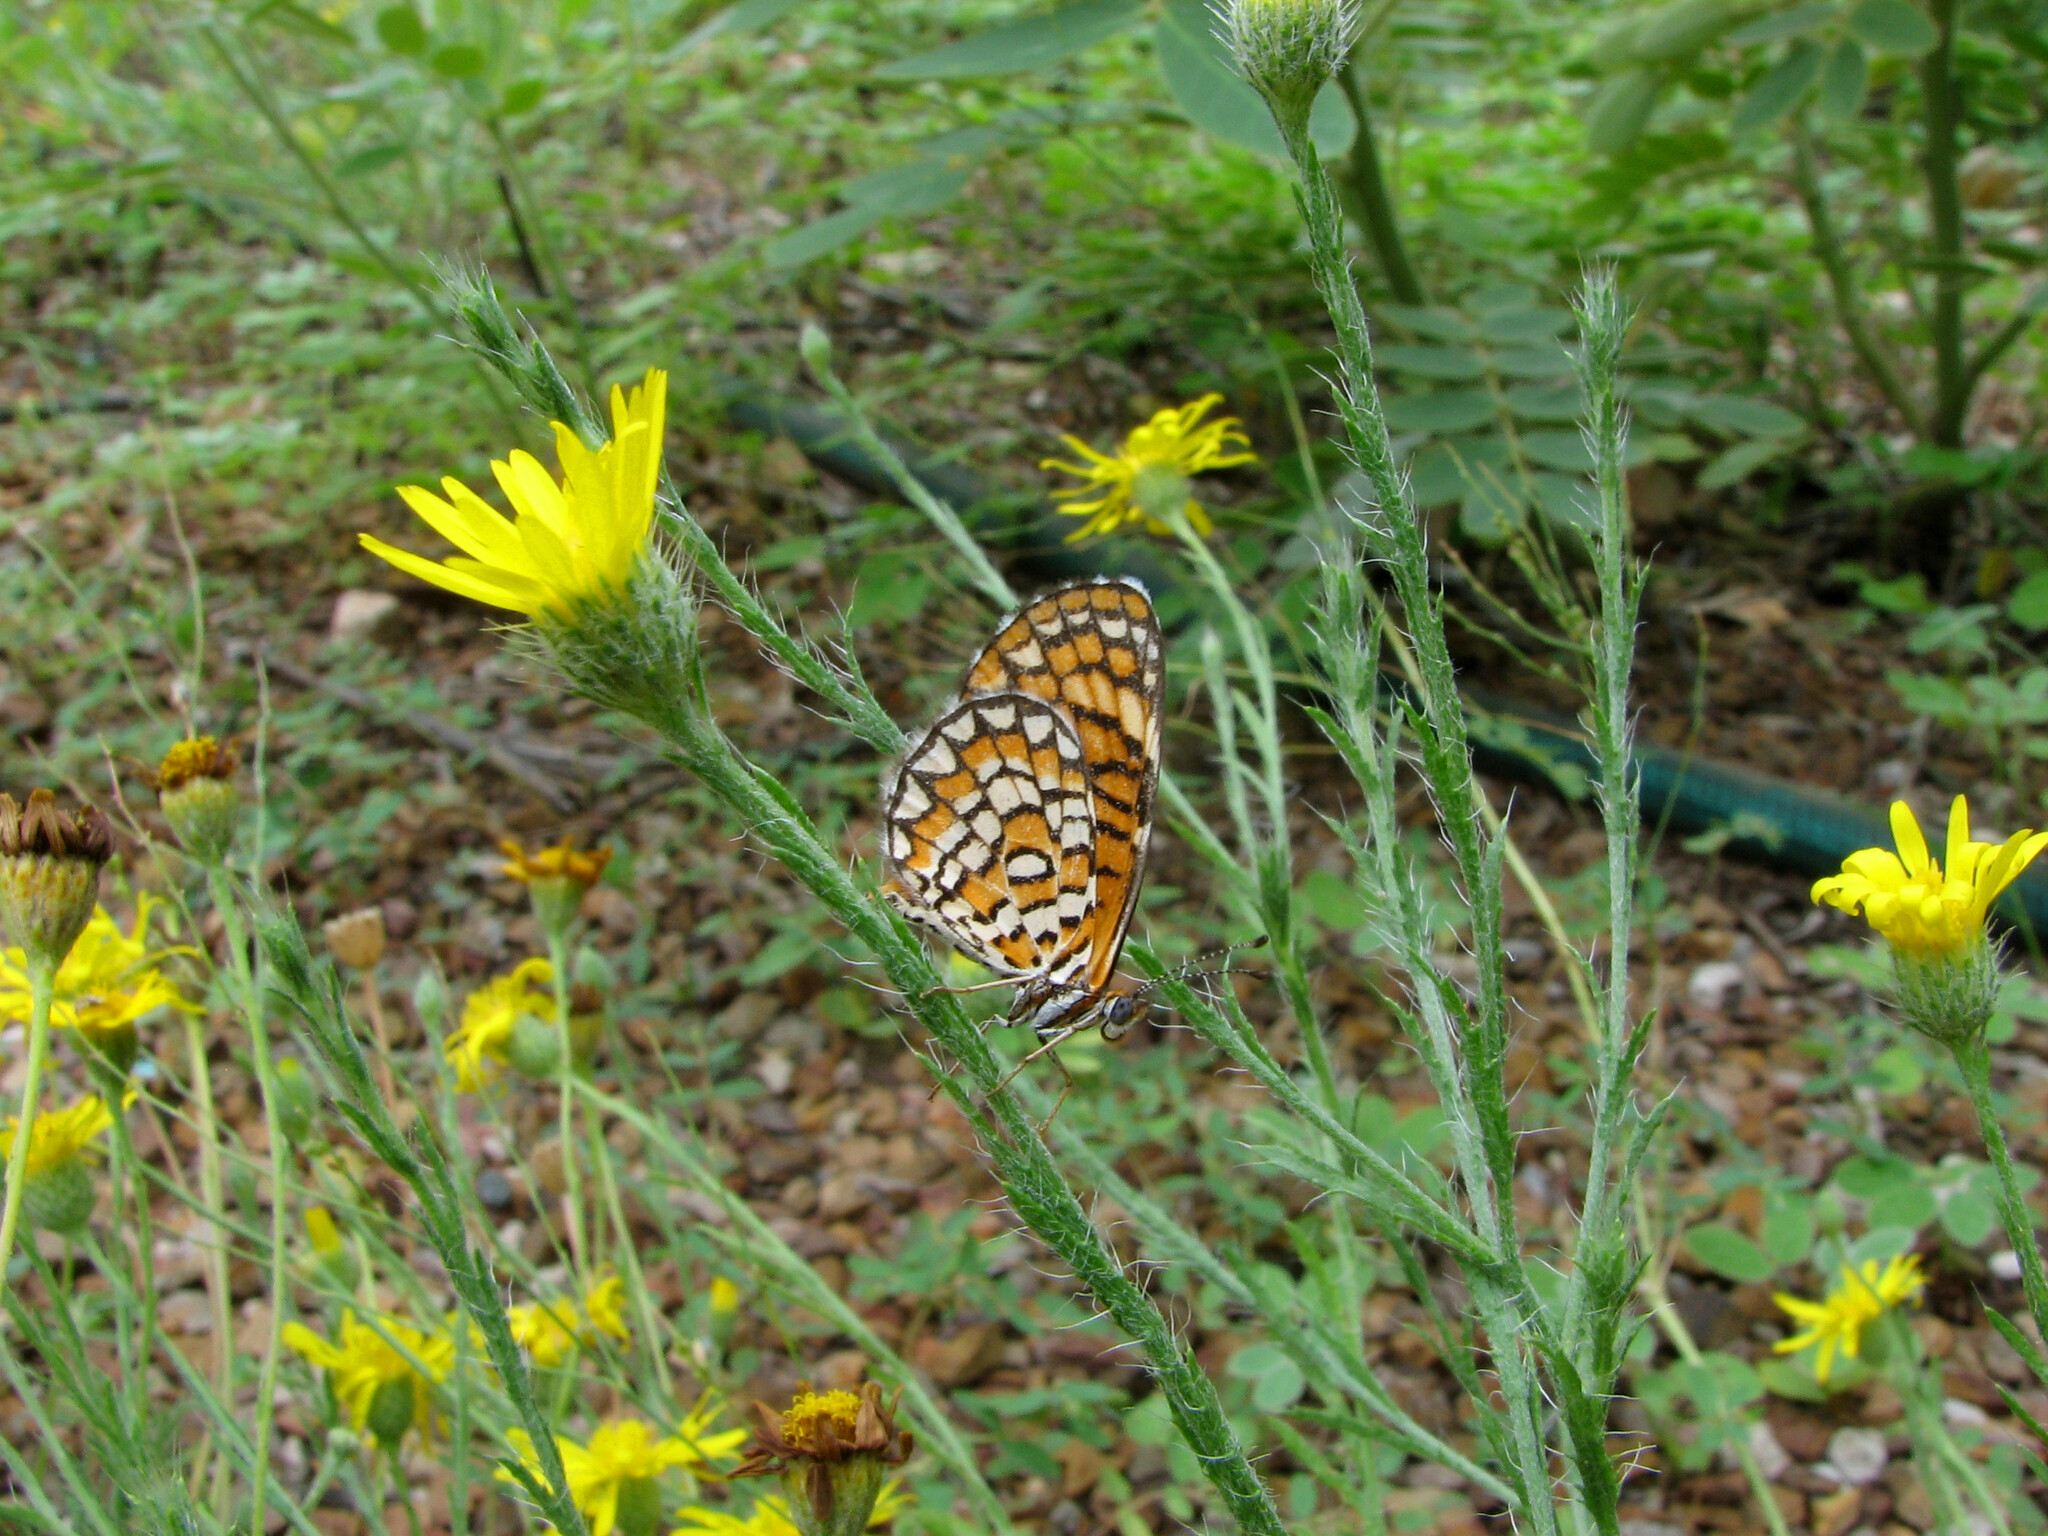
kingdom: Animalia
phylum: Arthropoda
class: Insecta
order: Lepidoptera
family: Nymphalidae
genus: Dymasia
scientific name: Dymasia dymas
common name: Tiny checkerspot
